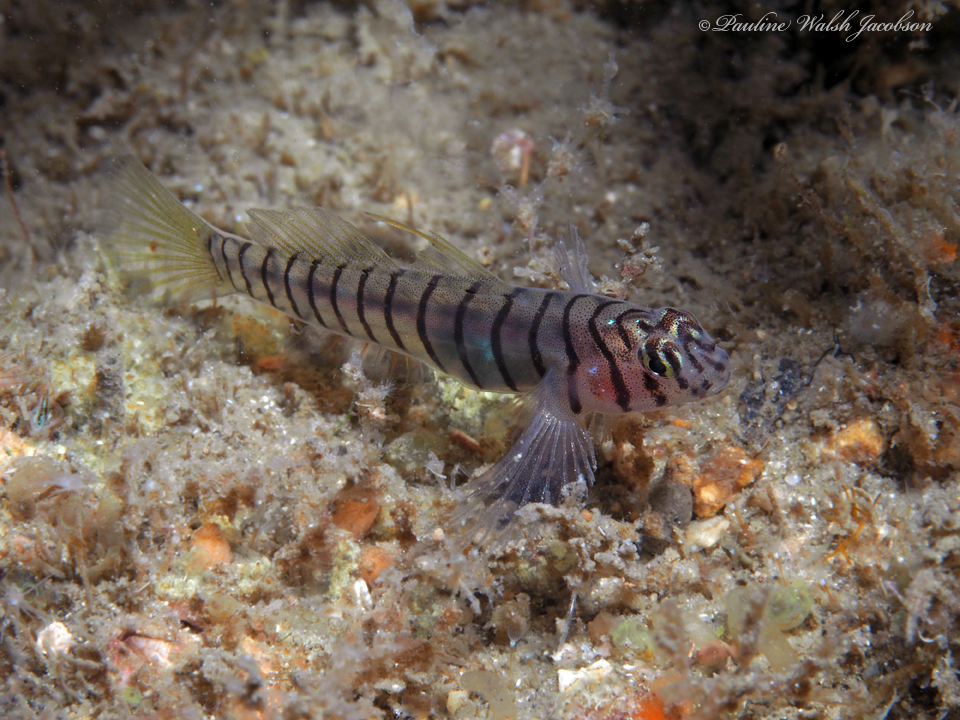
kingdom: Animalia
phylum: Chordata
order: Perciformes
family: Gobiidae
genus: Tigrigobius
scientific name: Tigrigobius macrodon
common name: Tiger goby
